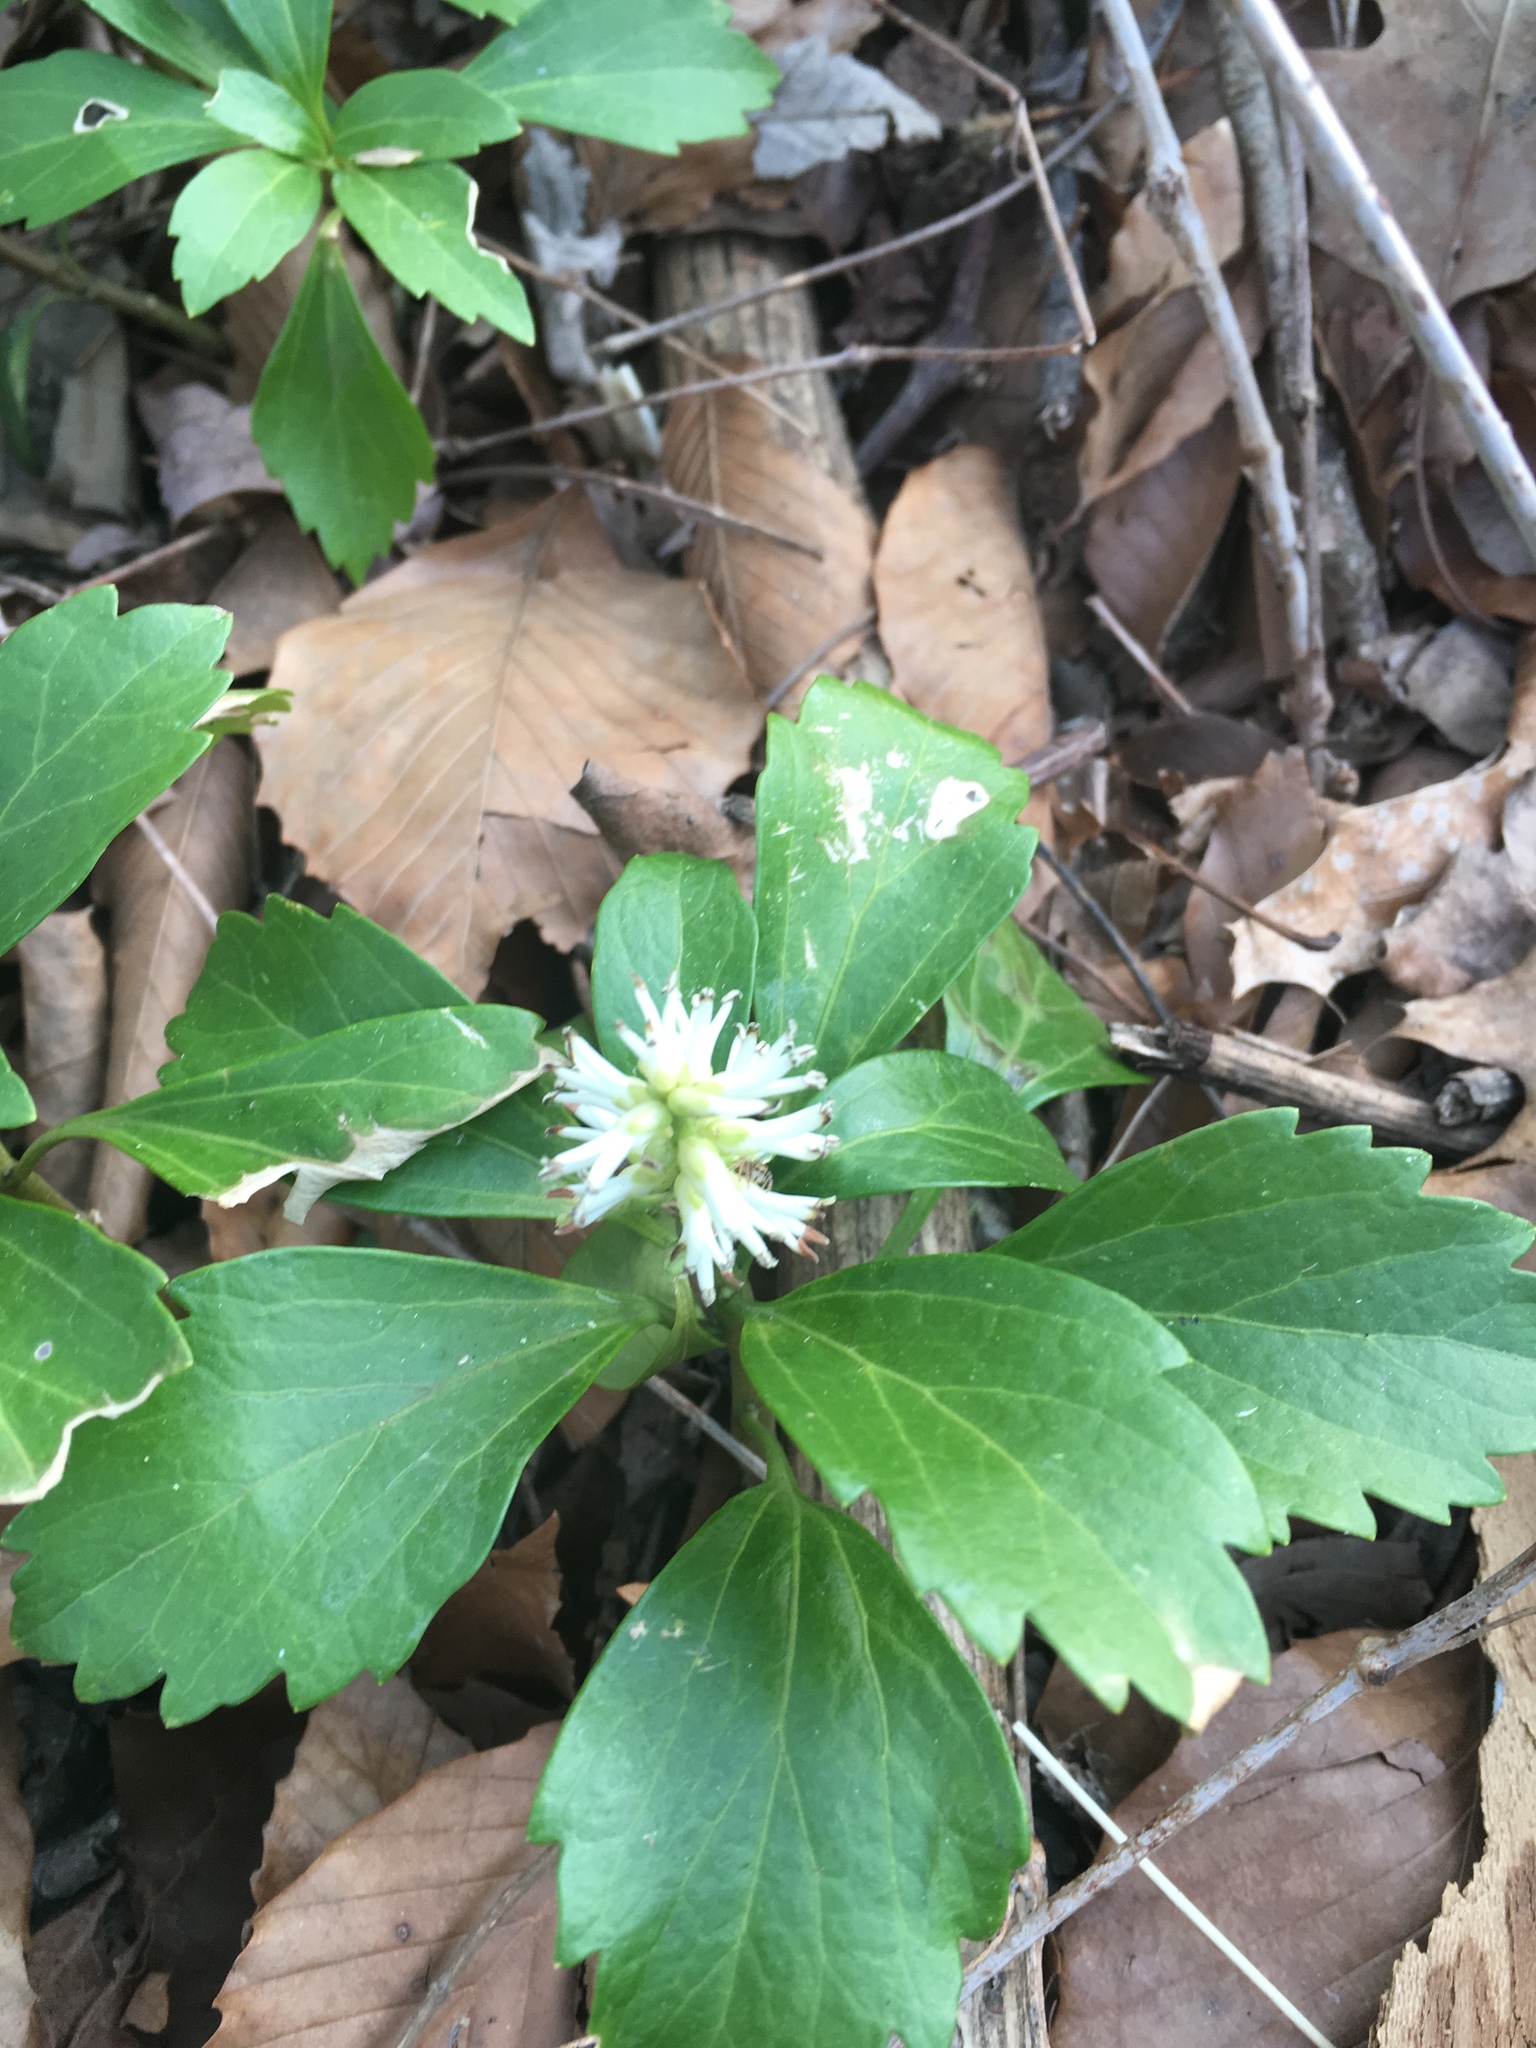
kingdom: Plantae
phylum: Tracheophyta
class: Magnoliopsida
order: Buxales
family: Buxaceae
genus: Pachysandra
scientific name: Pachysandra terminalis
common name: Japanese pachysandra
